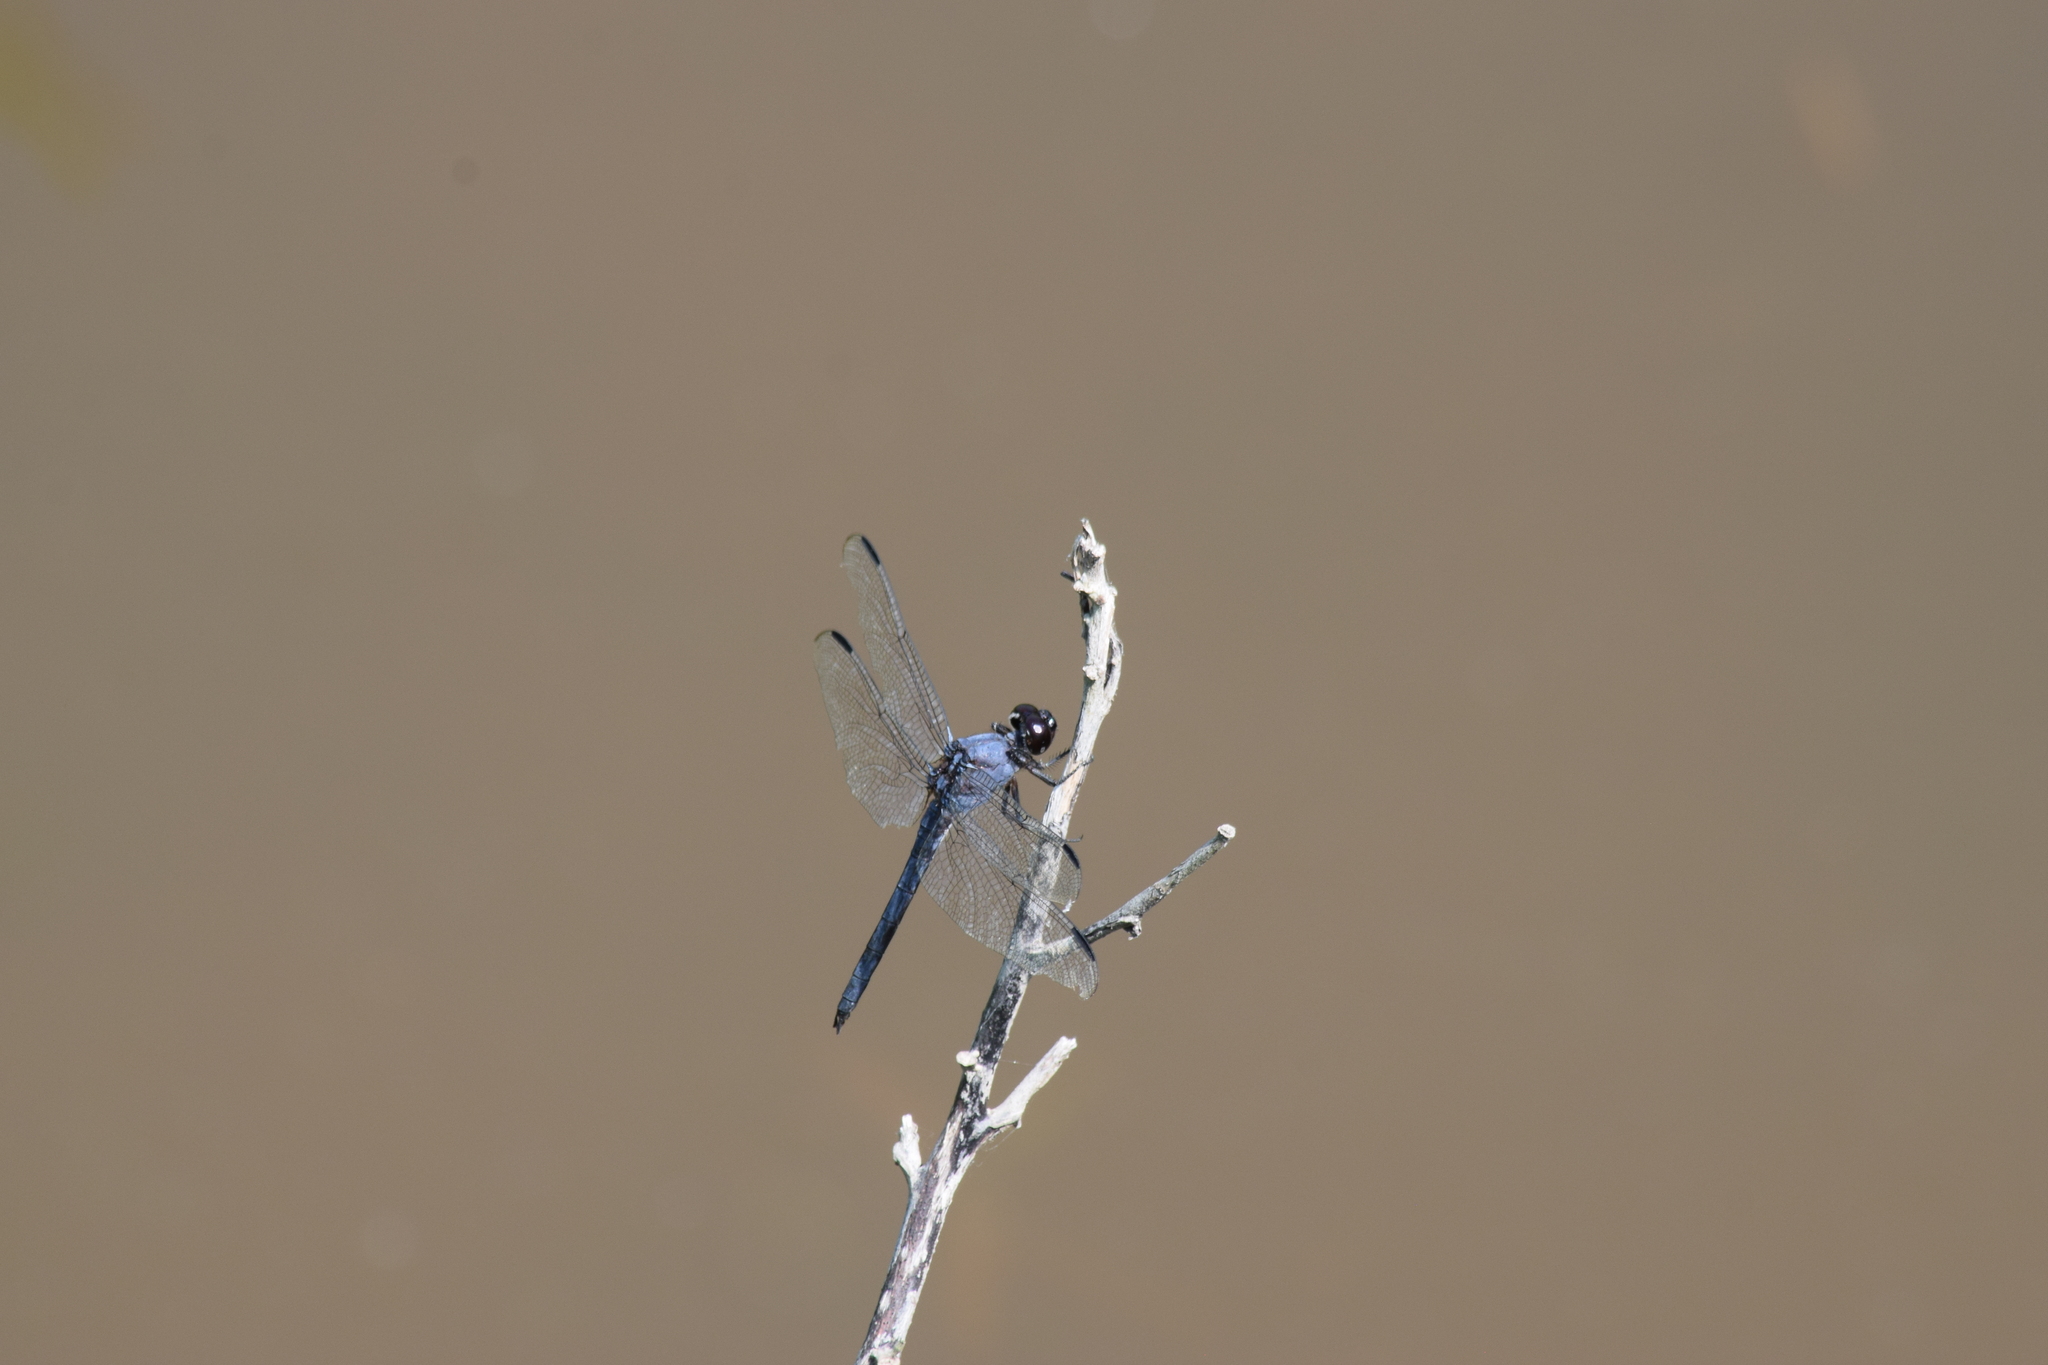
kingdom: Animalia
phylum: Arthropoda
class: Insecta
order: Odonata
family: Libellulidae
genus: Libellula
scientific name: Libellula incesta
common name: Slaty skimmer
